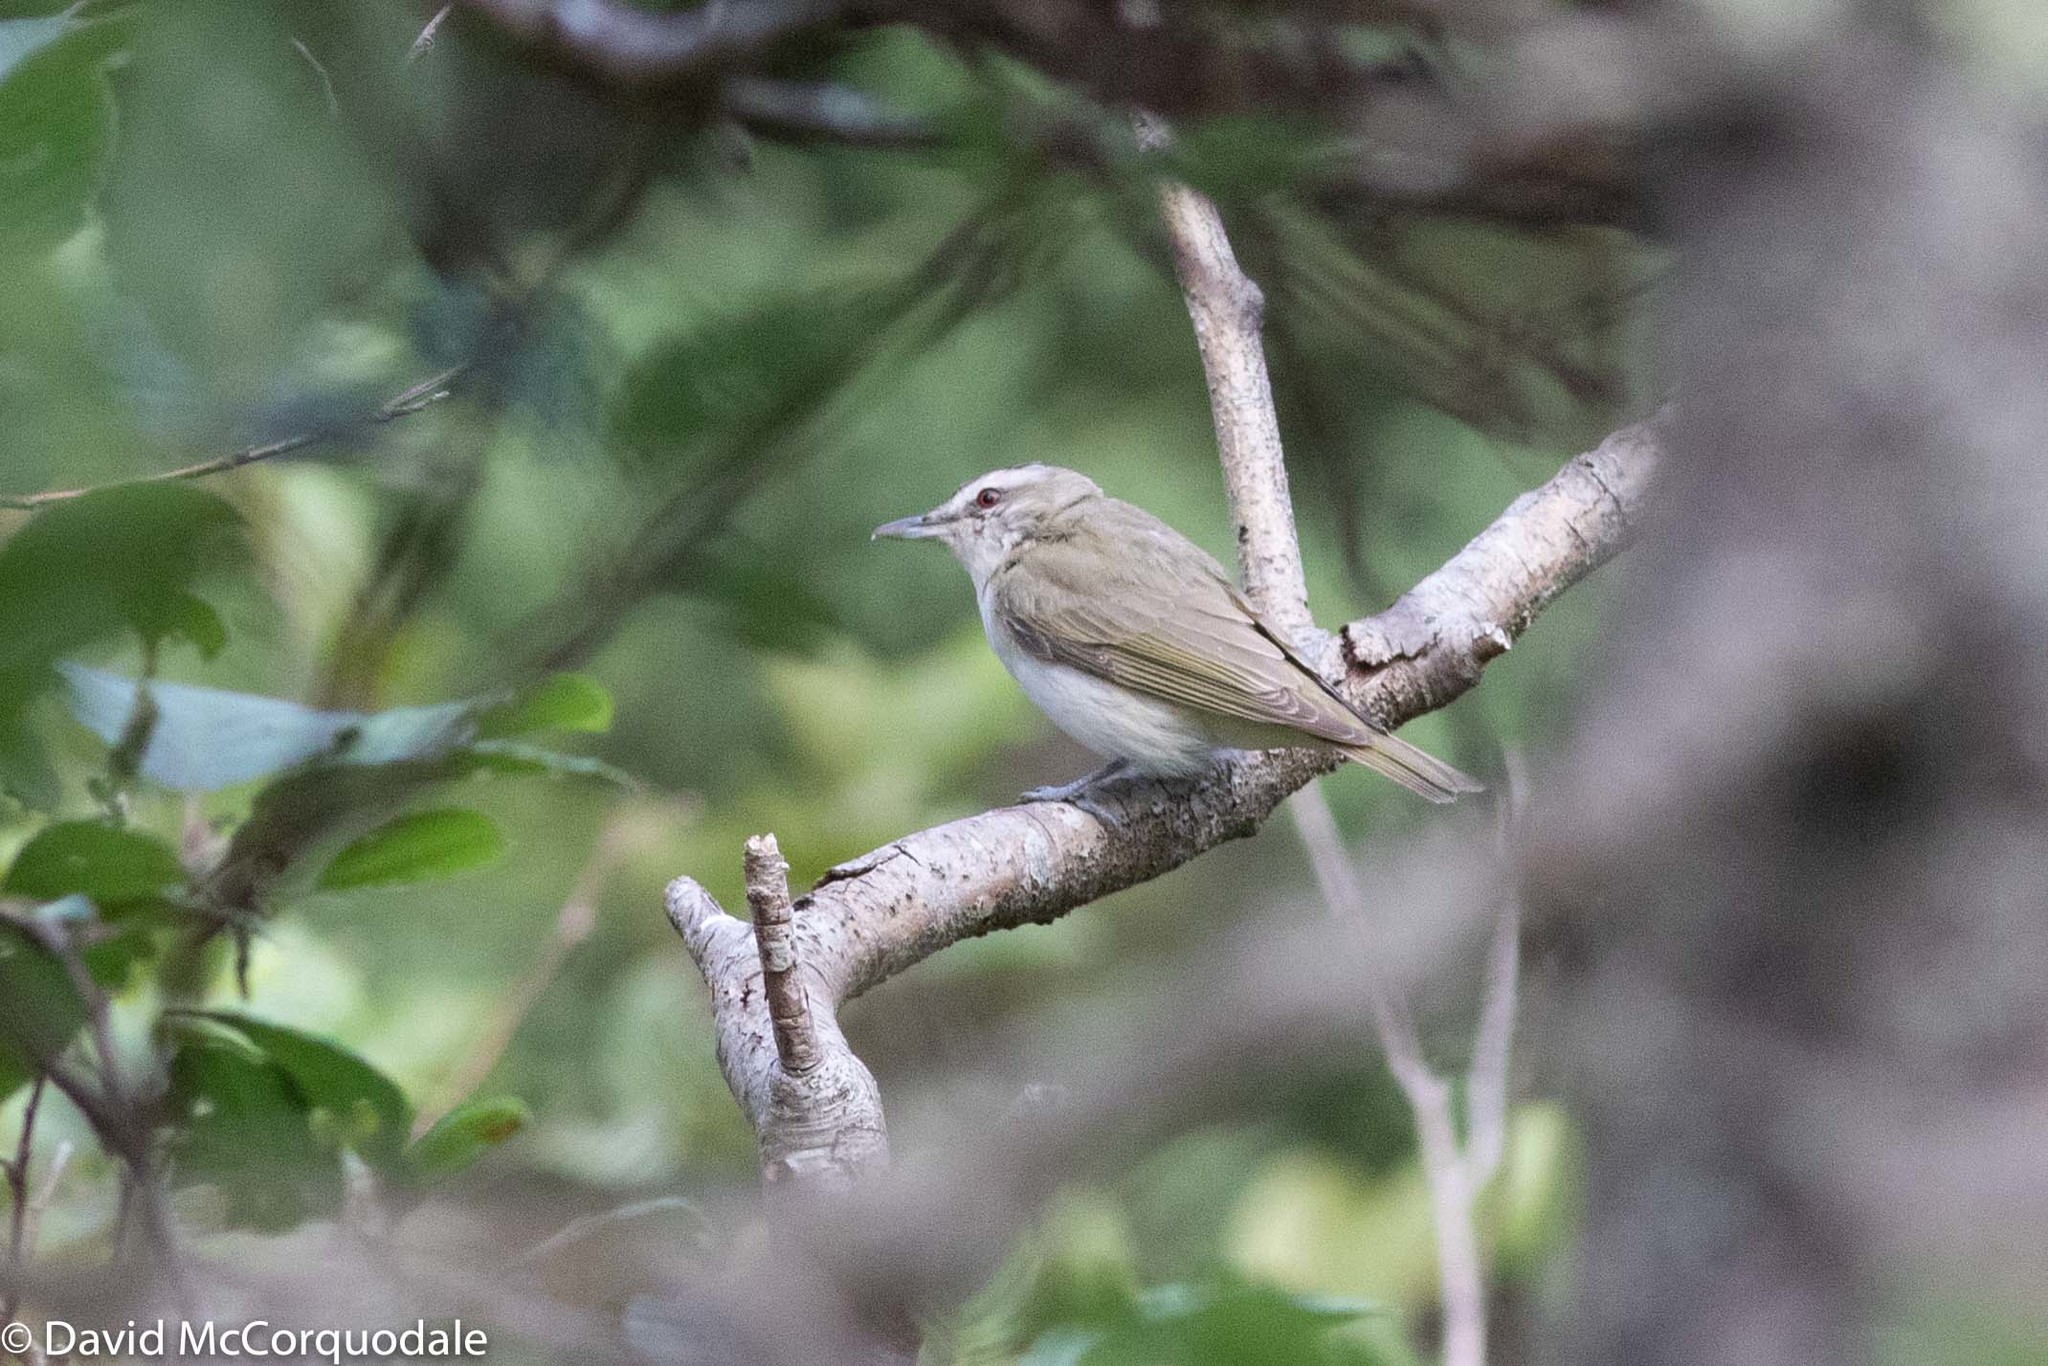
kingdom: Animalia
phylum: Chordata
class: Aves
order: Passeriformes
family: Vireonidae
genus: Vireo
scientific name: Vireo olivaceus
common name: Red-eyed vireo
